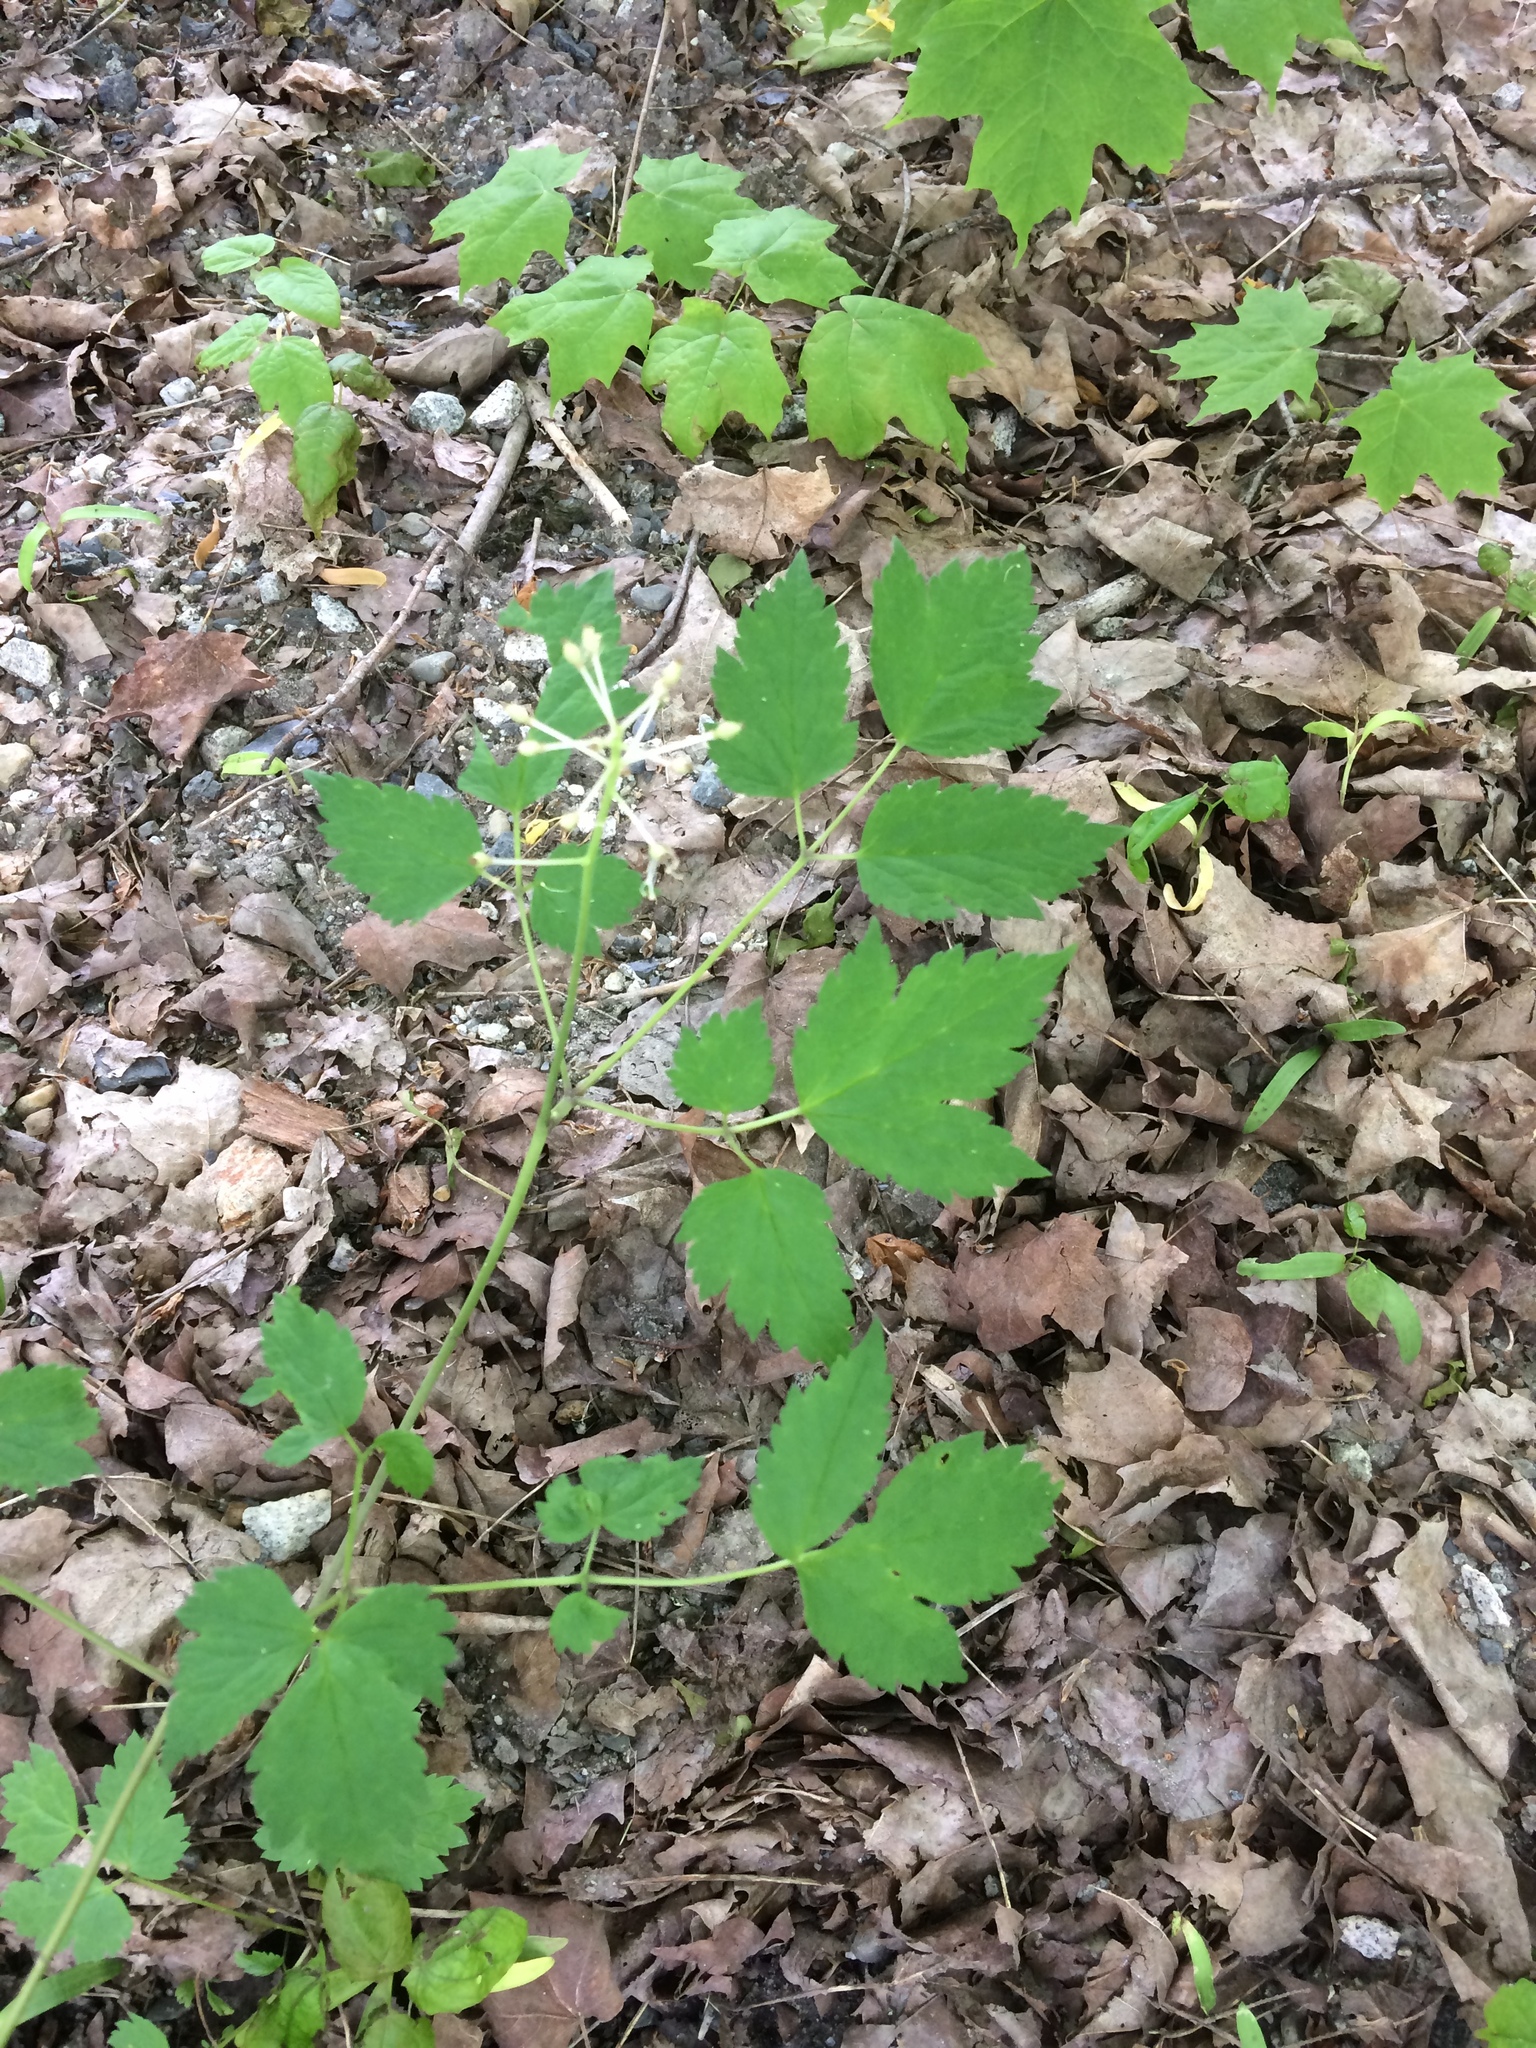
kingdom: Plantae
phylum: Tracheophyta
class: Magnoliopsida
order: Ranunculales
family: Ranunculaceae
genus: Actaea
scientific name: Actaea rubra
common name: Red baneberry
